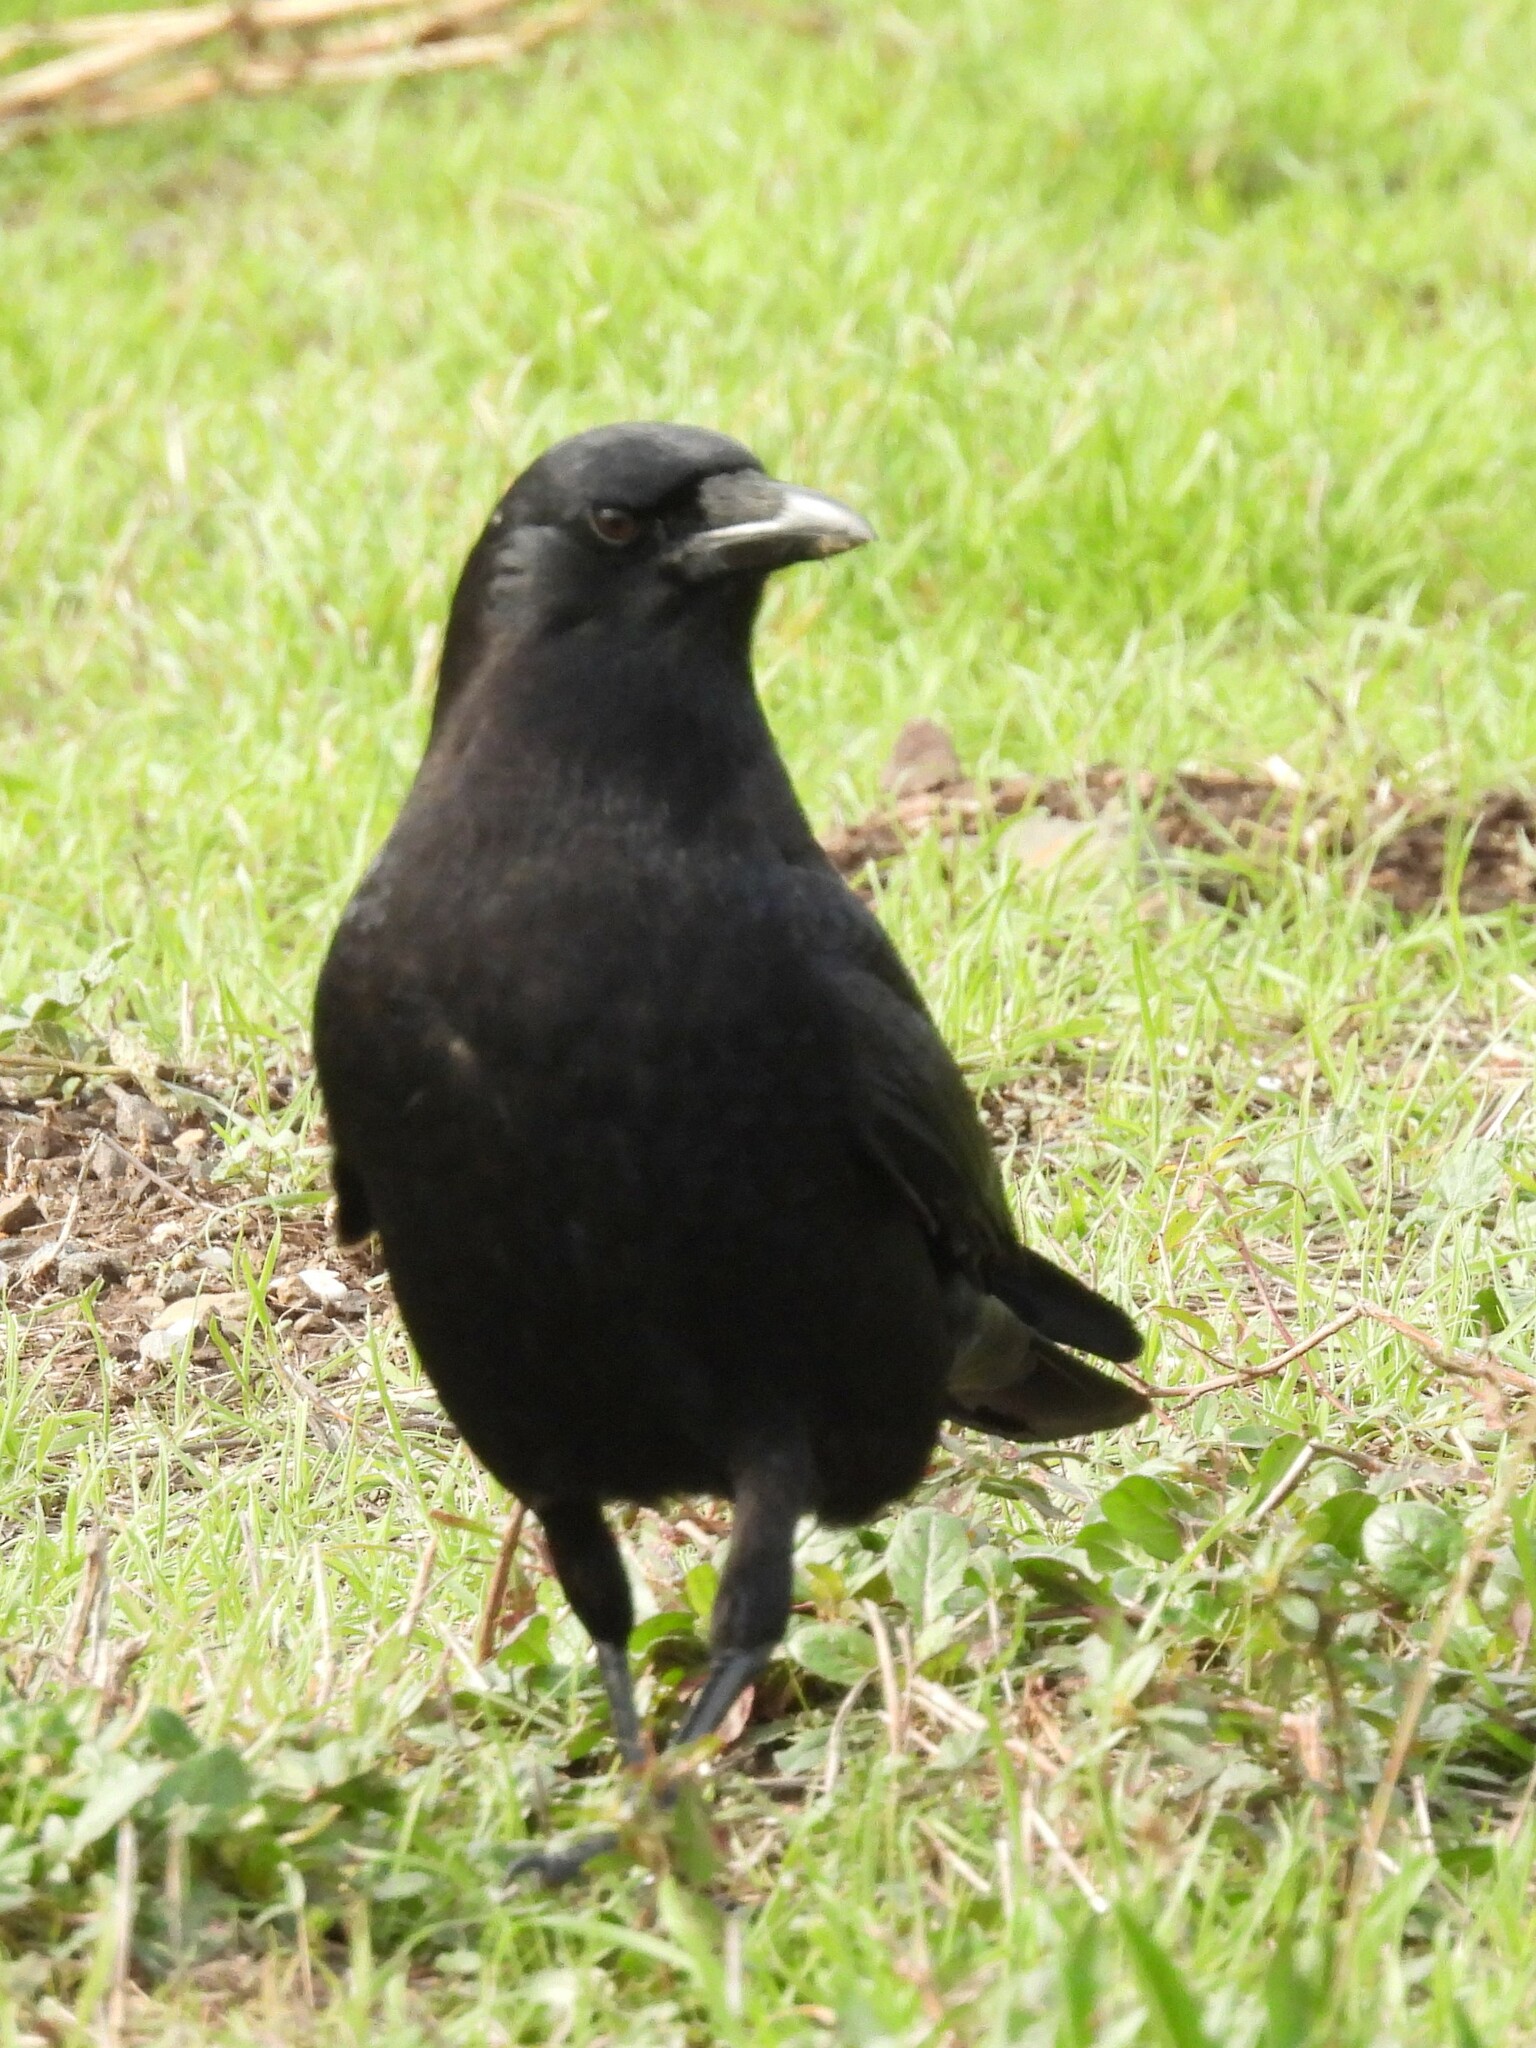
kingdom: Animalia
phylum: Chordata
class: Aves
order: Passeriformes
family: Corvidae
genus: Corvus
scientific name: Corvus brachyrhynchos
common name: American crow
